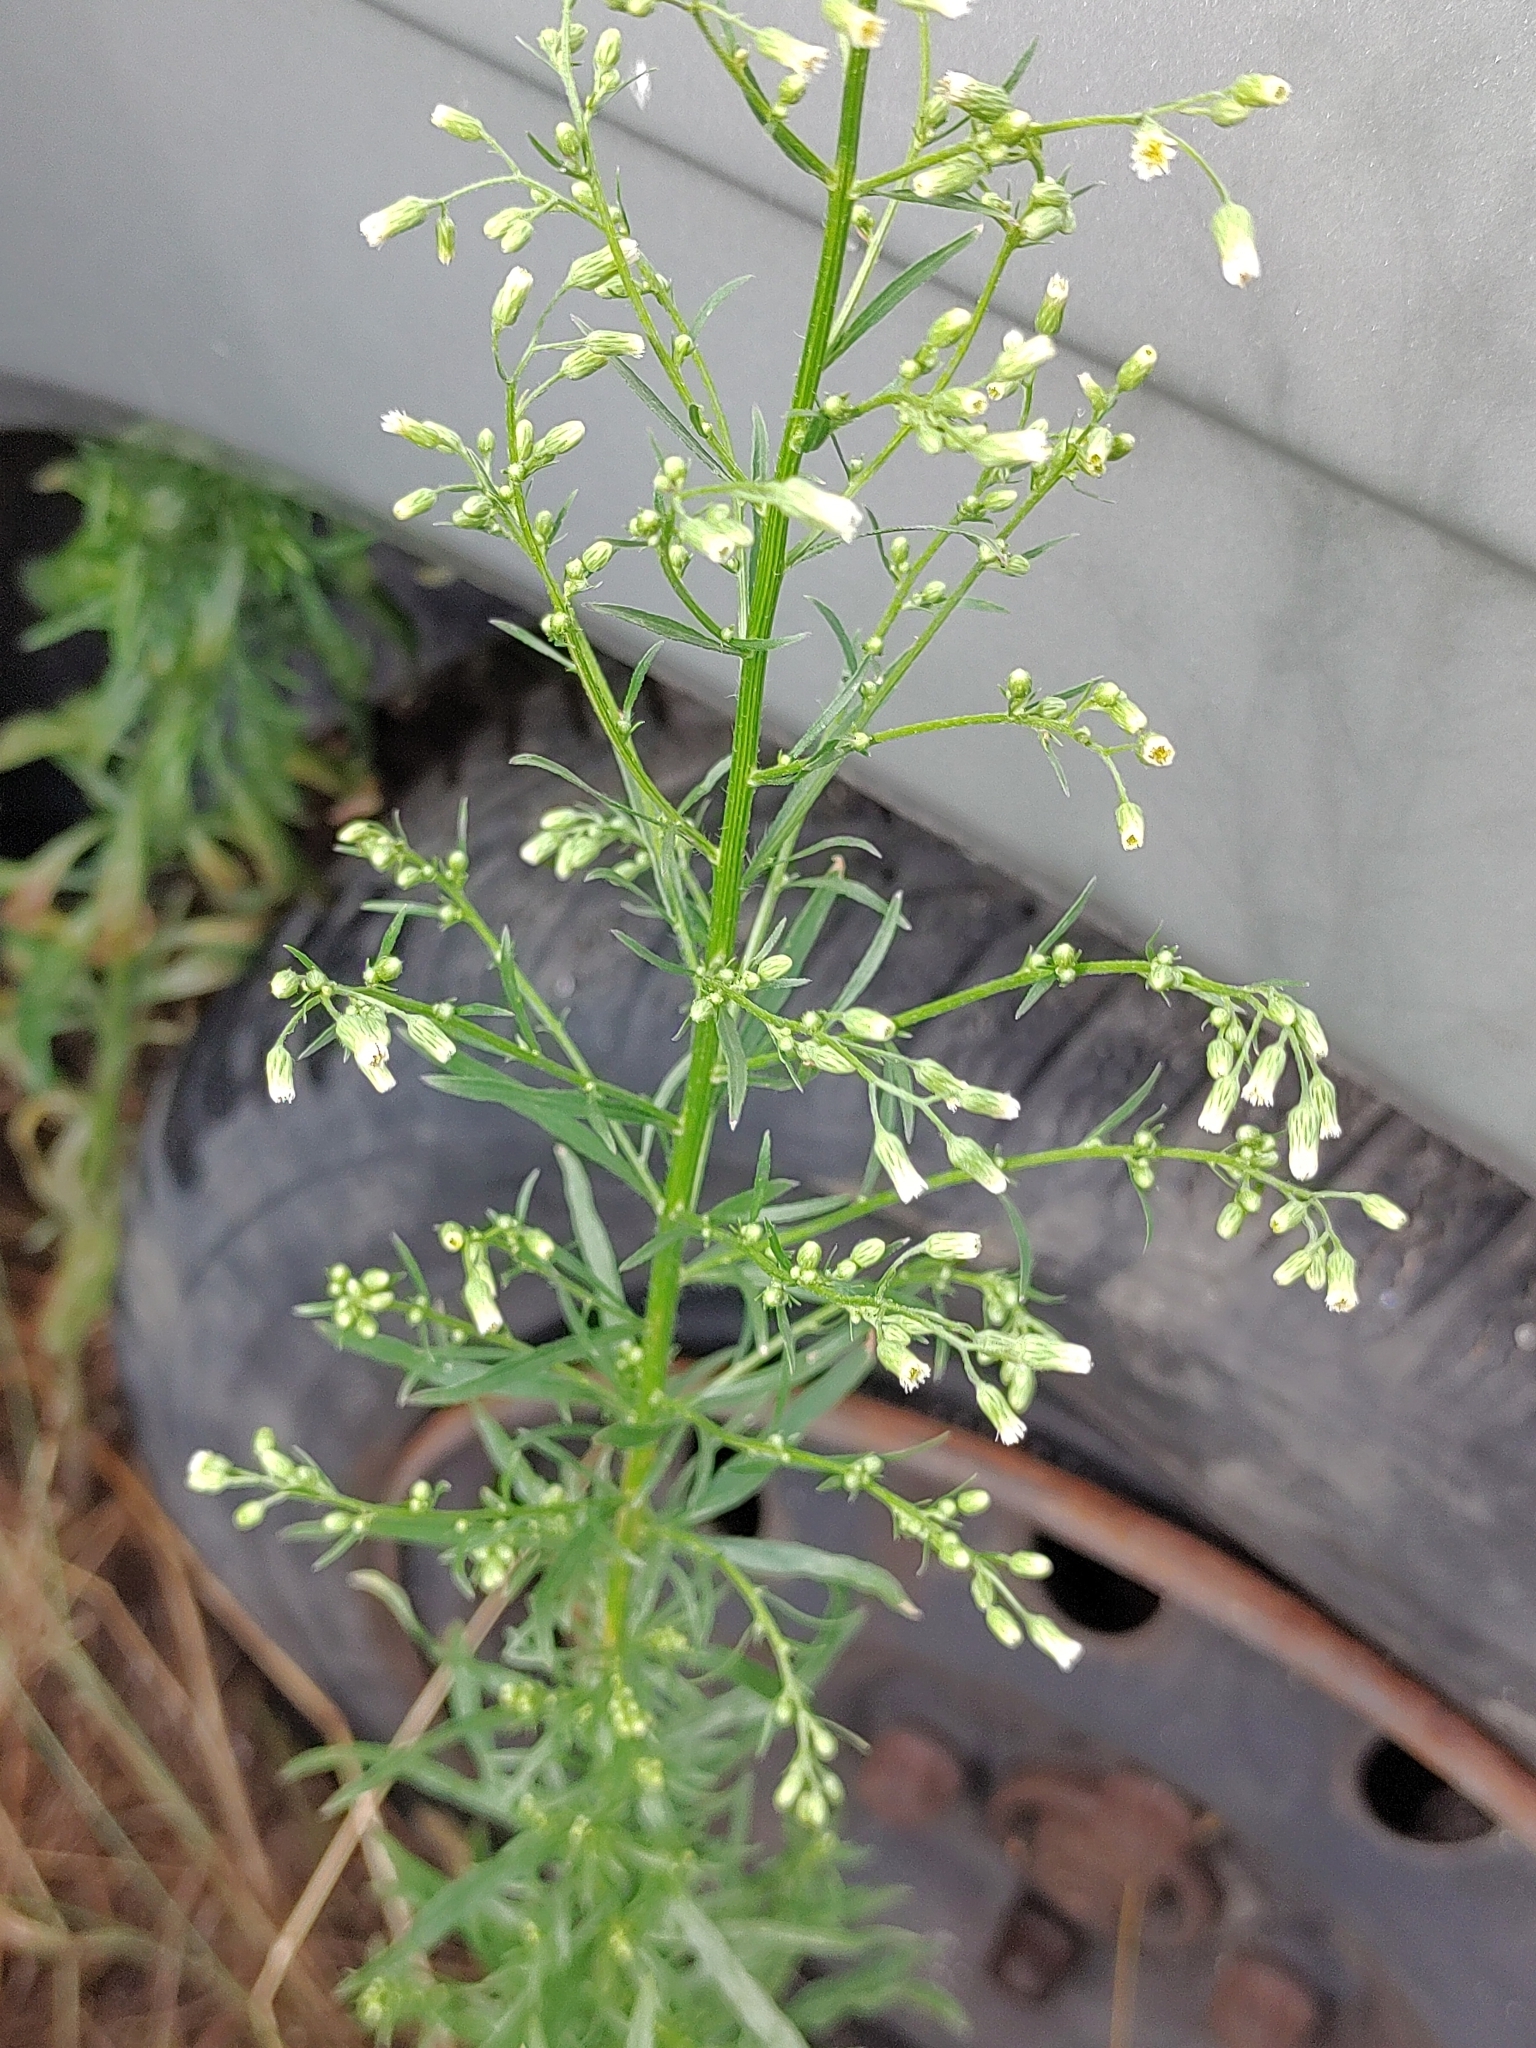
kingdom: Plantae
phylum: Tracheophyta
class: Magnoliopsida
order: Asterales
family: Asteraceae
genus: Erigeron
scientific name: Erigeron canadensis
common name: Canadian fleabane
